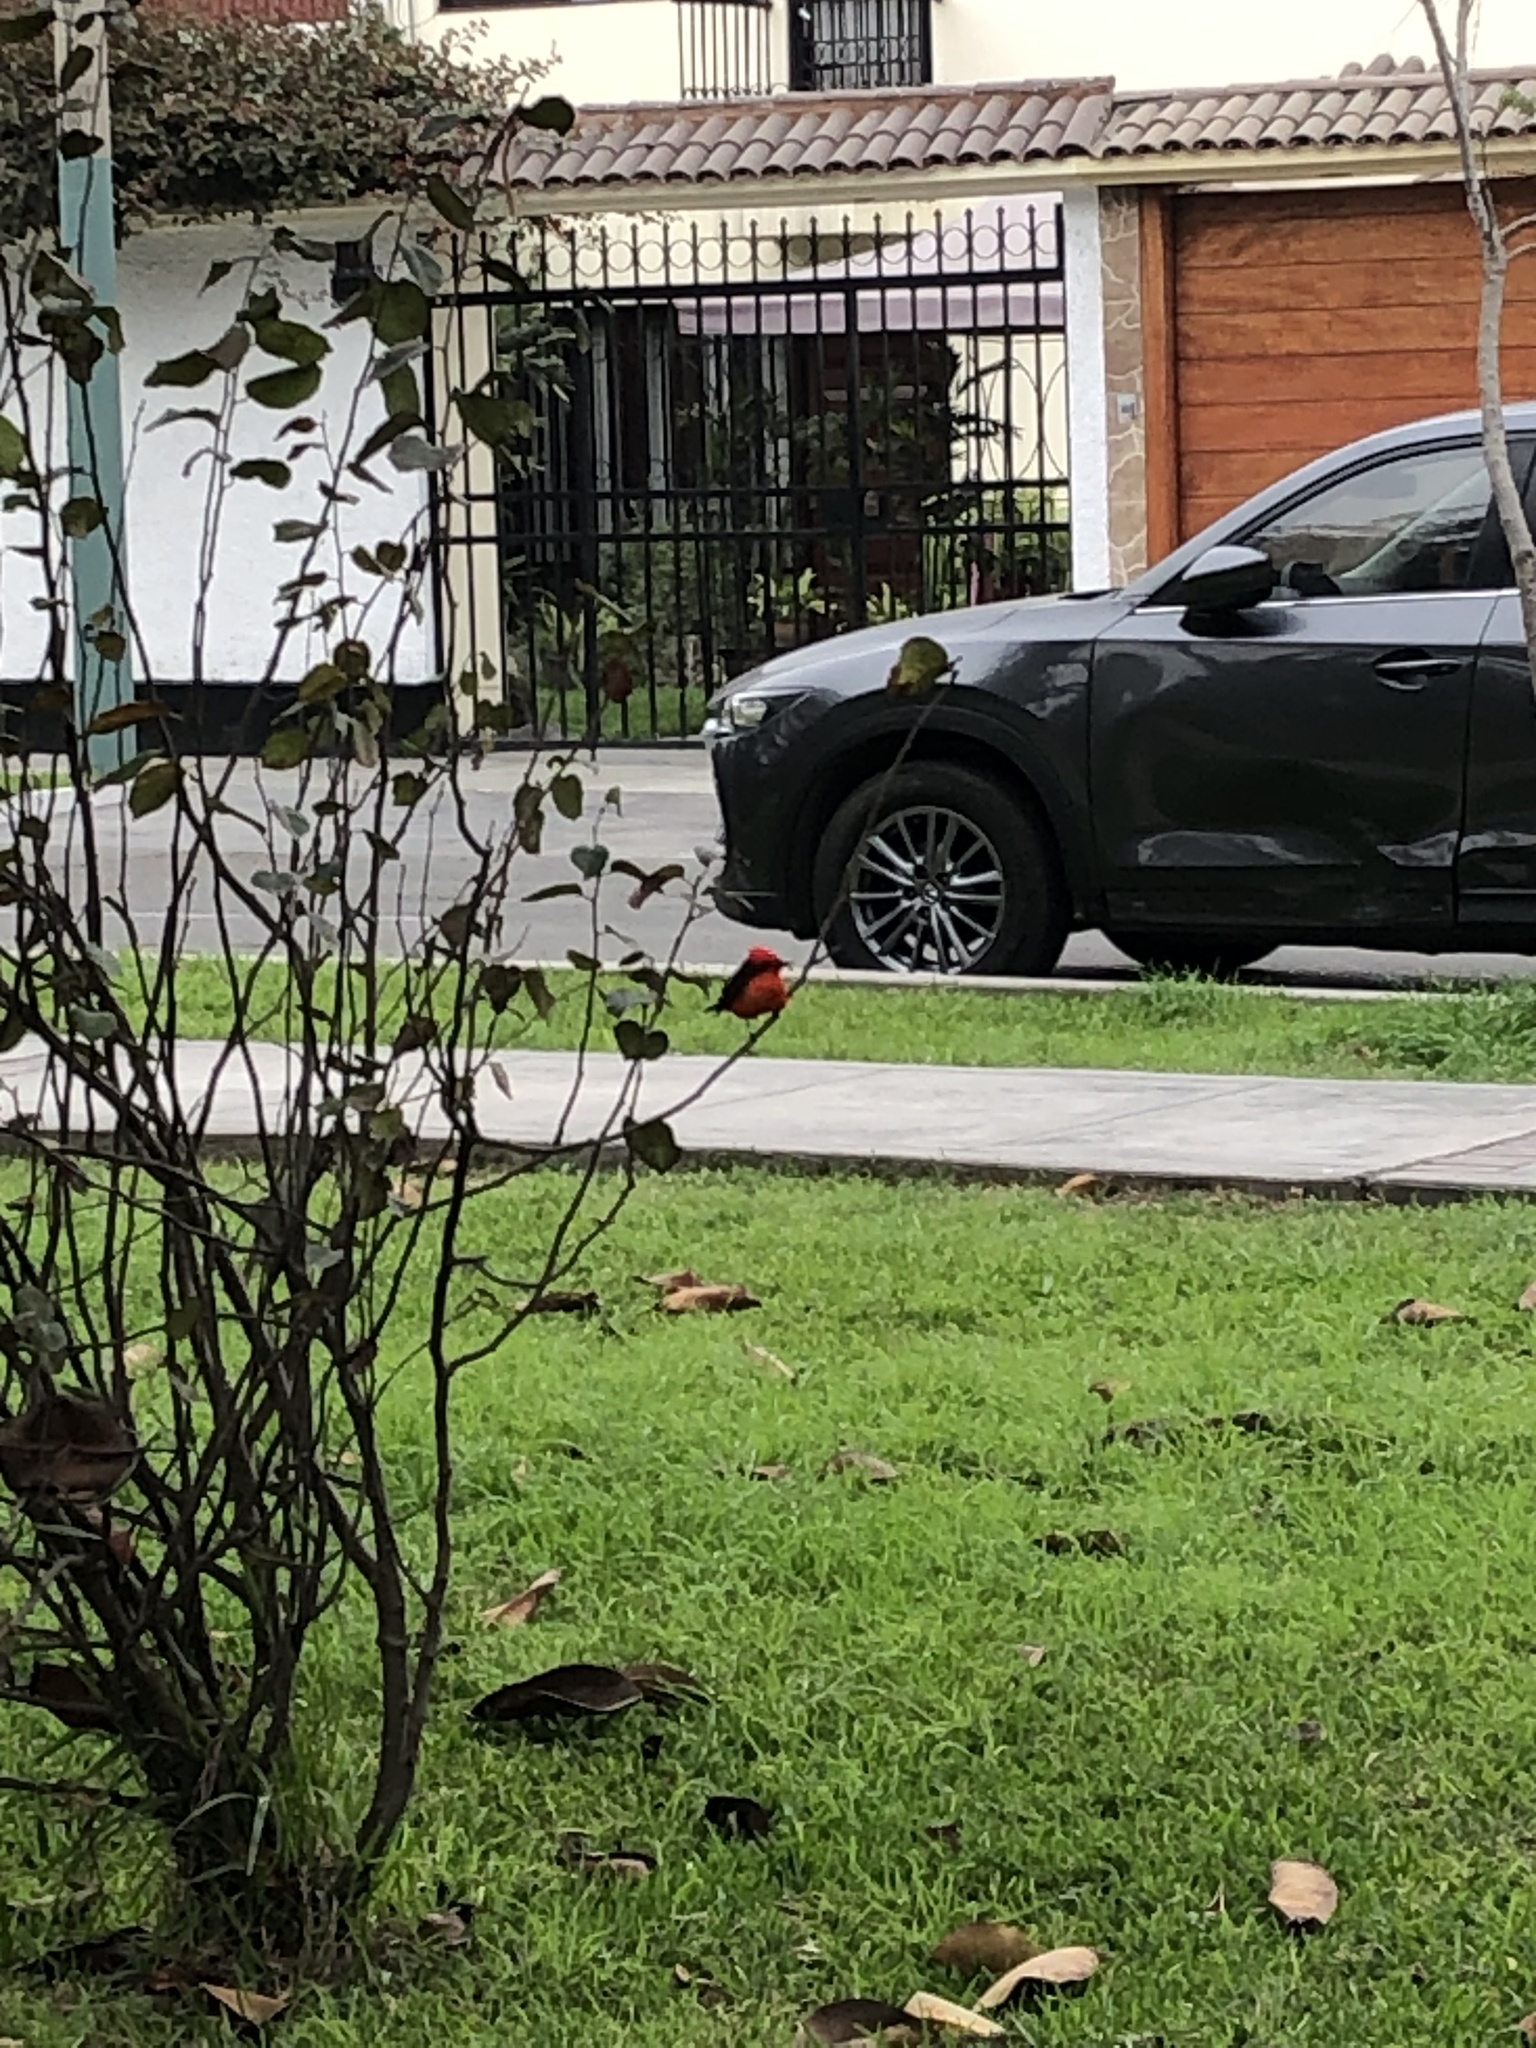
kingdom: Animalia
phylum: Chordata
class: Aves
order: Passeriformes
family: Tyrannidae
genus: Pyrocephalus
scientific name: Pyrocephalus rubinus
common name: Vermilion flycatcher
